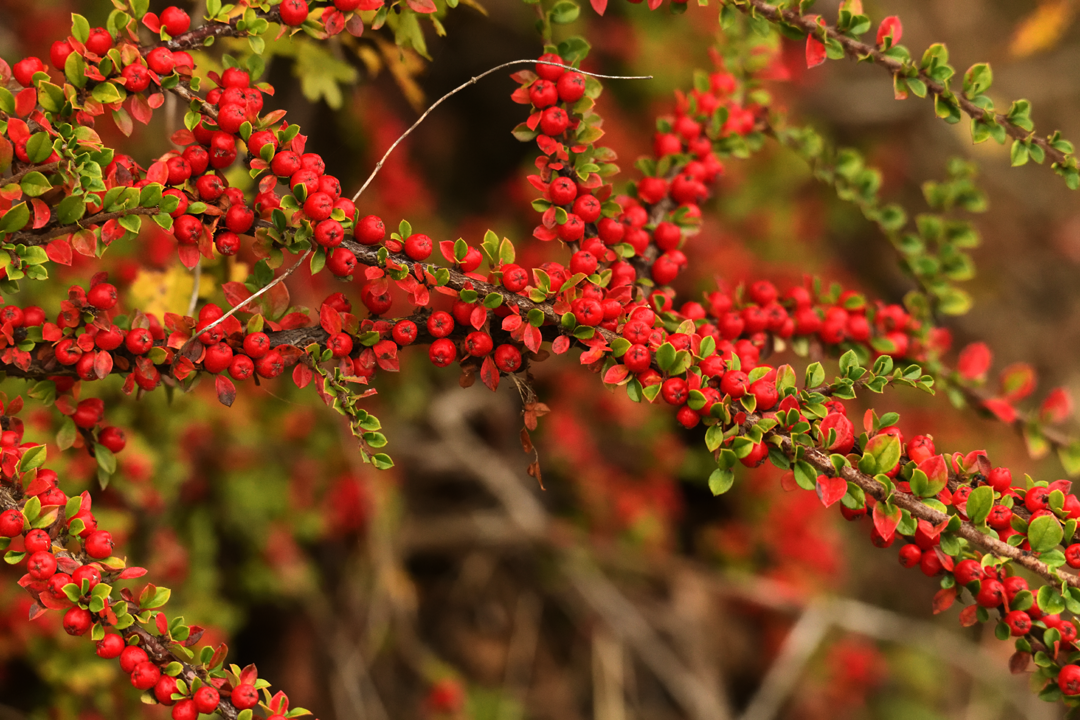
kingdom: Plantae
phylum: Tracheophyta
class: Magnoliopsida
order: Rosales
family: Rosaceae
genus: Cotoneaster
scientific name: Cotoneaster horizontalis
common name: Wall cotoneaster
